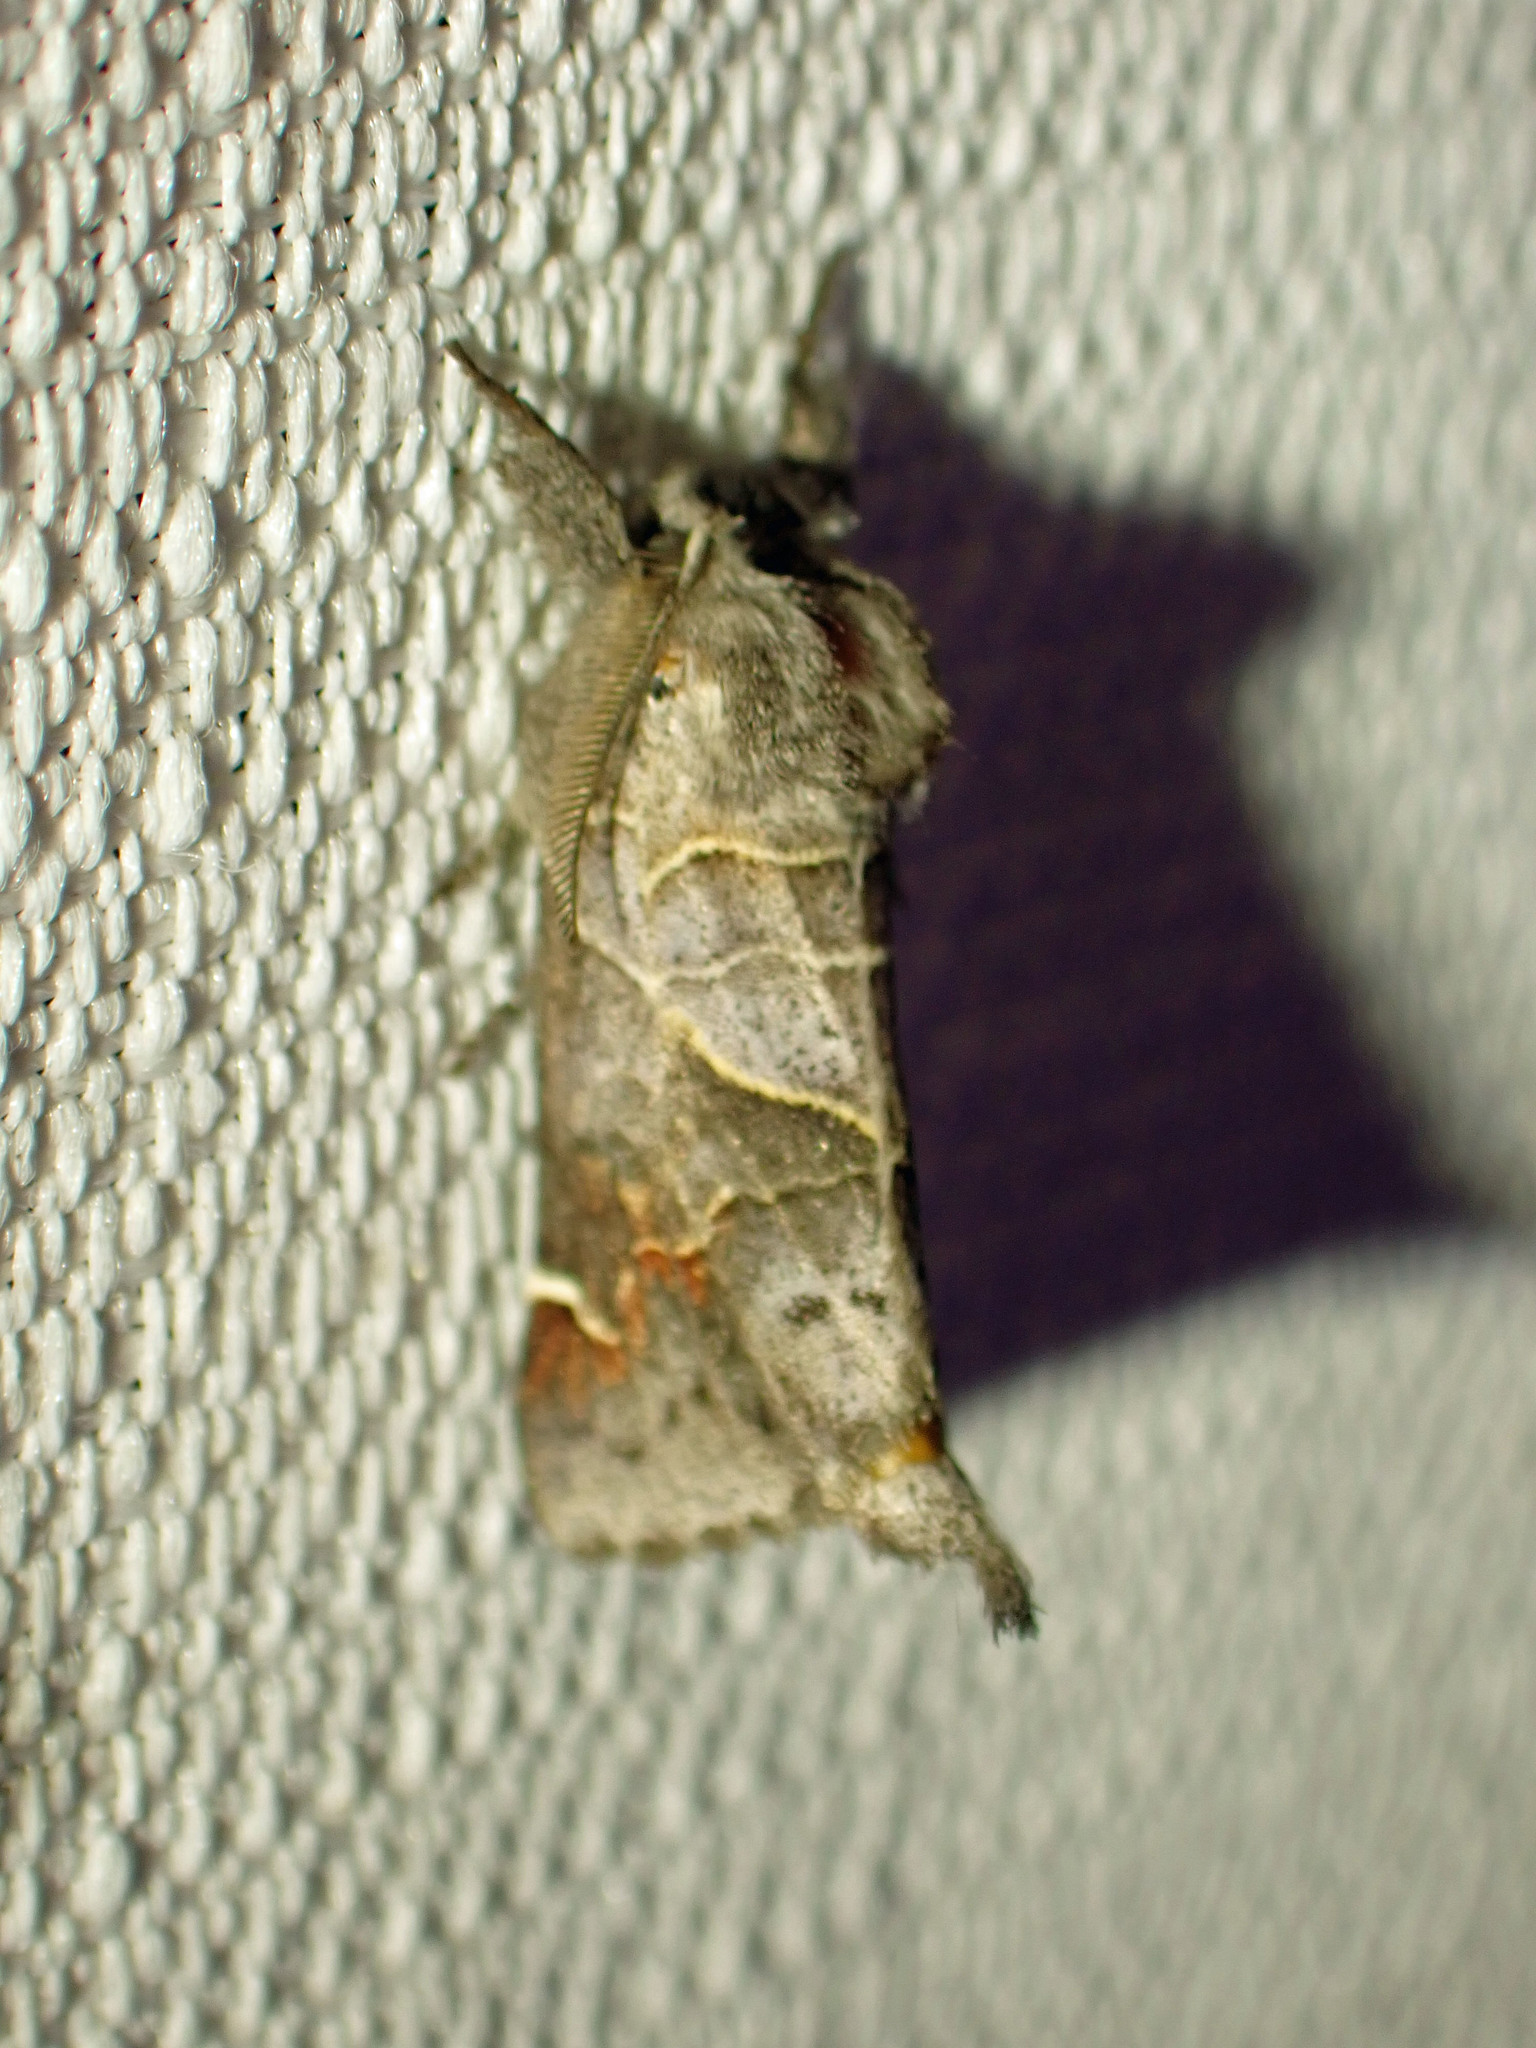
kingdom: Animalia
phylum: Arthropoda
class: Insecta
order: Lepidoptera
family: Notodontidae
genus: Clostera
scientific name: Clostera apicalis
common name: Apical prominent
